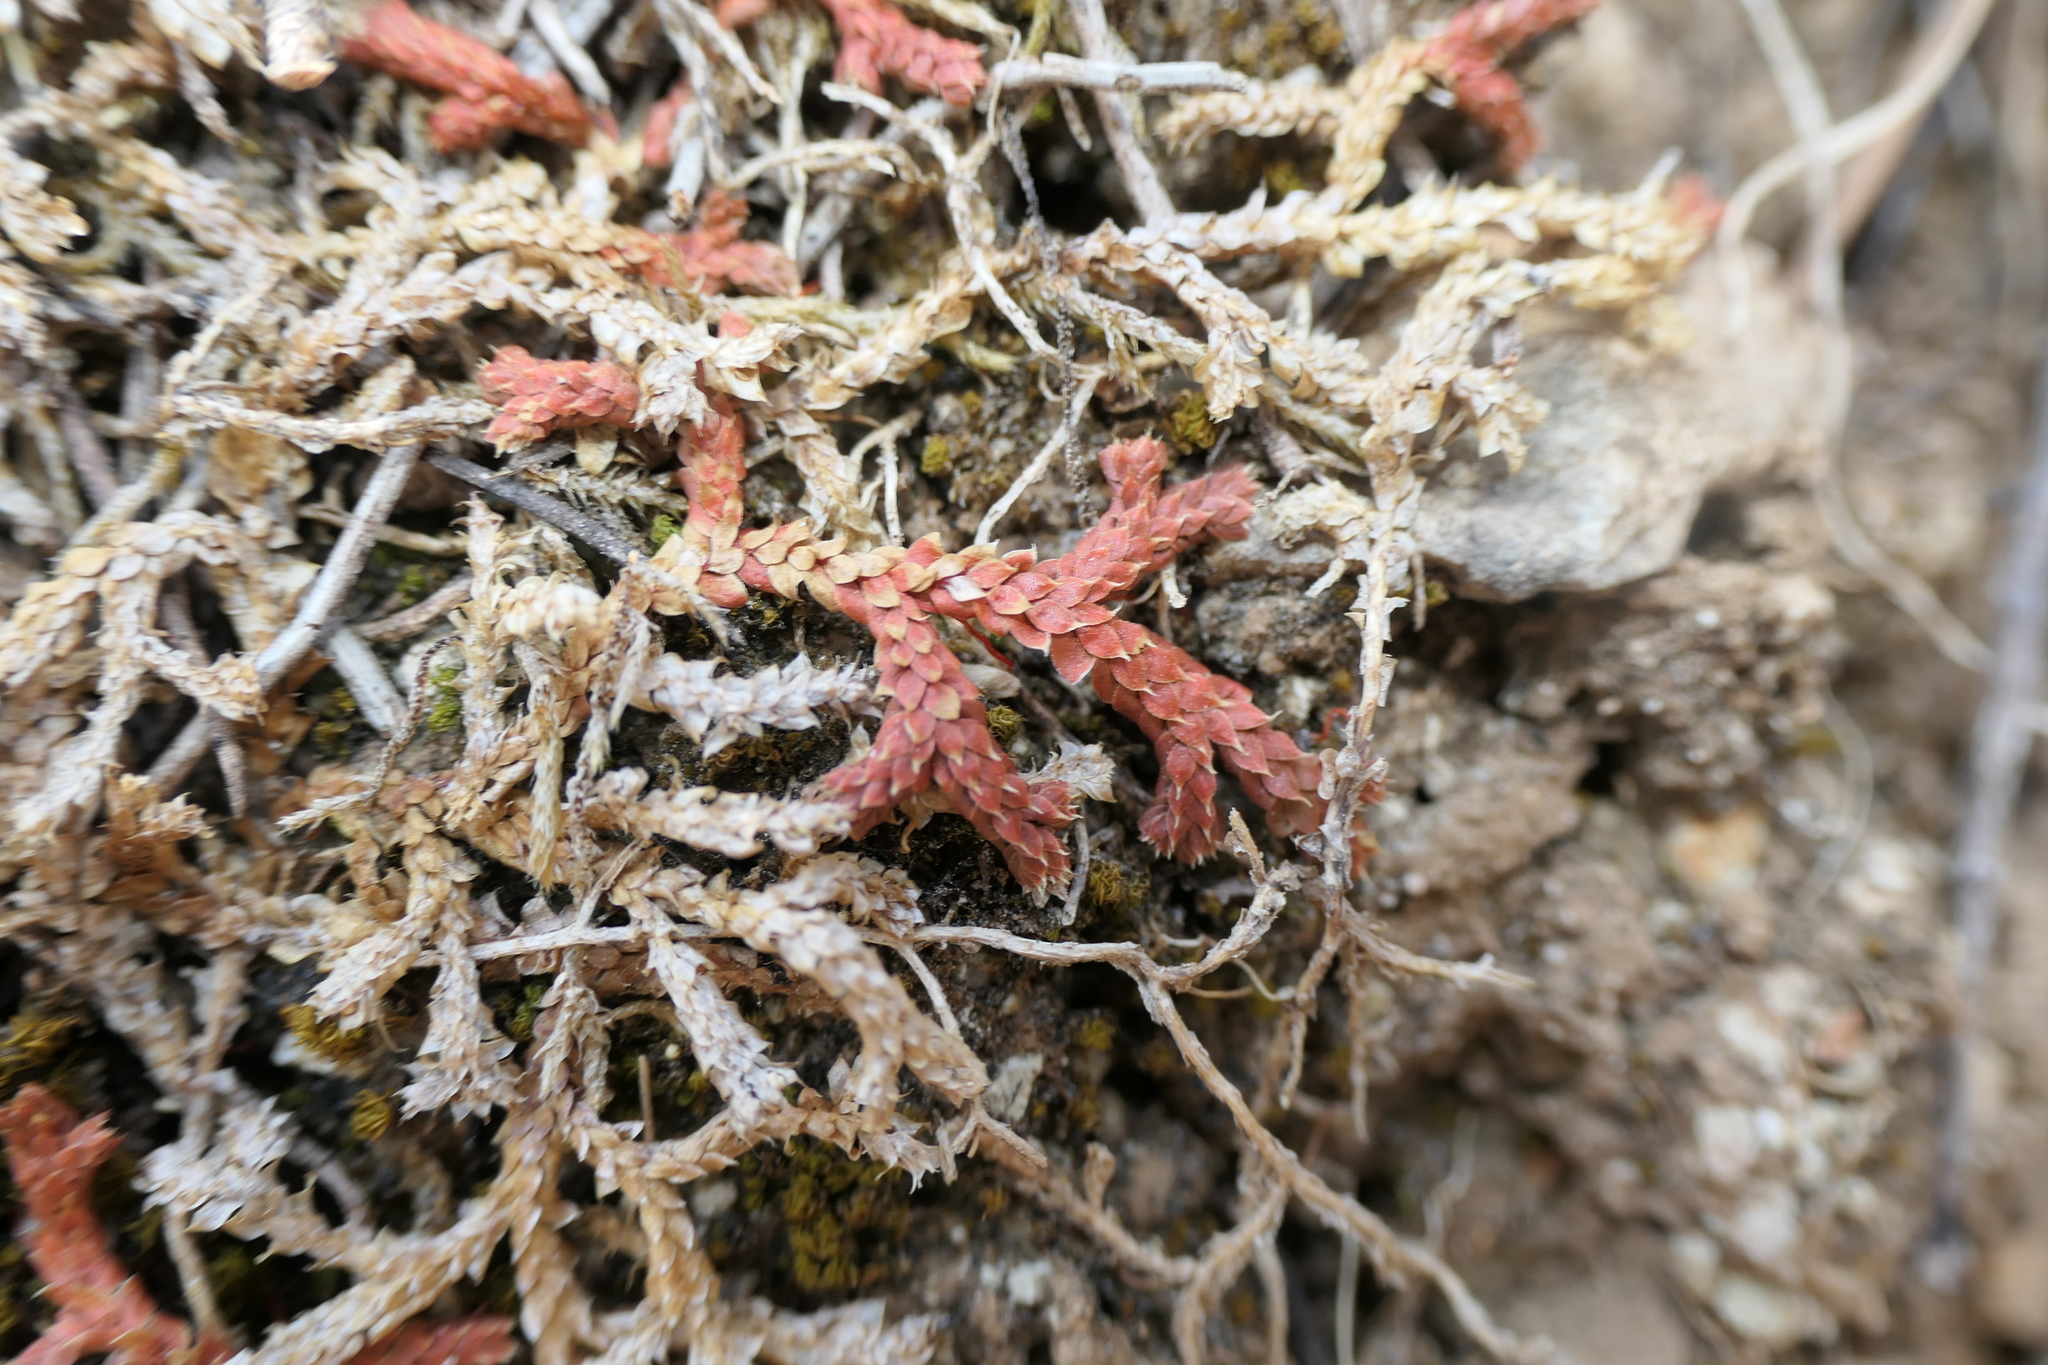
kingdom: Plantae
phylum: Tracheophyta
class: Lycopodiopsida
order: Selaginellales
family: Selaginellaceae
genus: Selaginella
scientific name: Selaginella denticulata
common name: Toothed-leaved clubmoss
